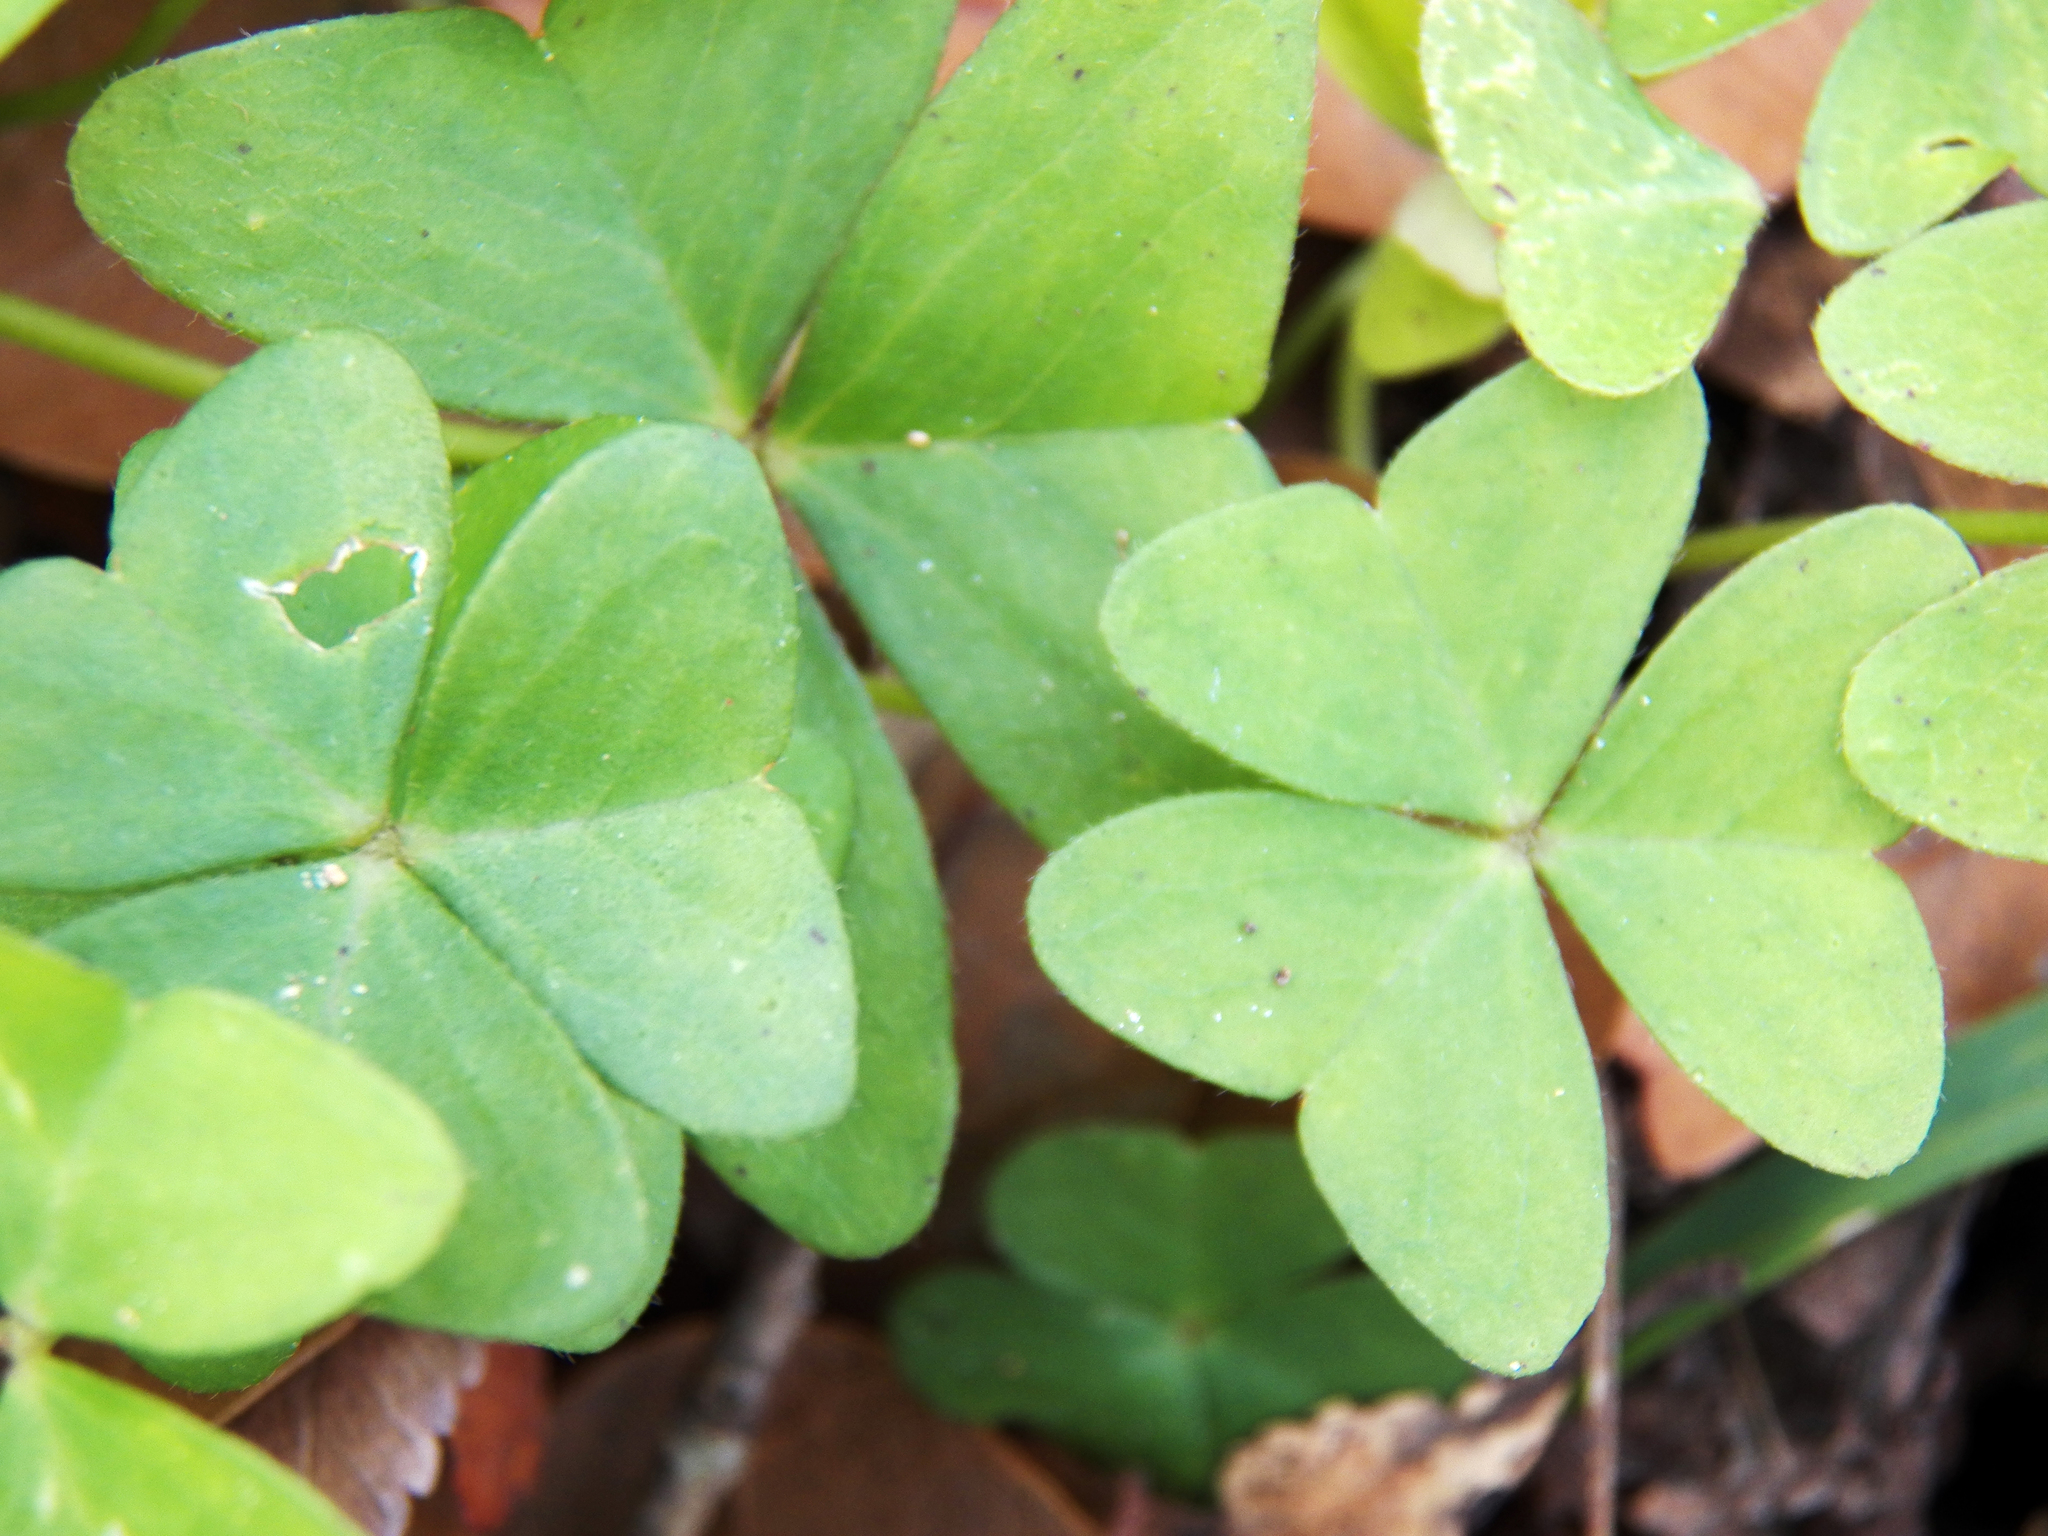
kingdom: Plantae
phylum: Tracheophyta
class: Magnoliopsida
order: Oxalidales
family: Oxalidaceae
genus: Oxalis
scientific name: Oxalis intermedia
